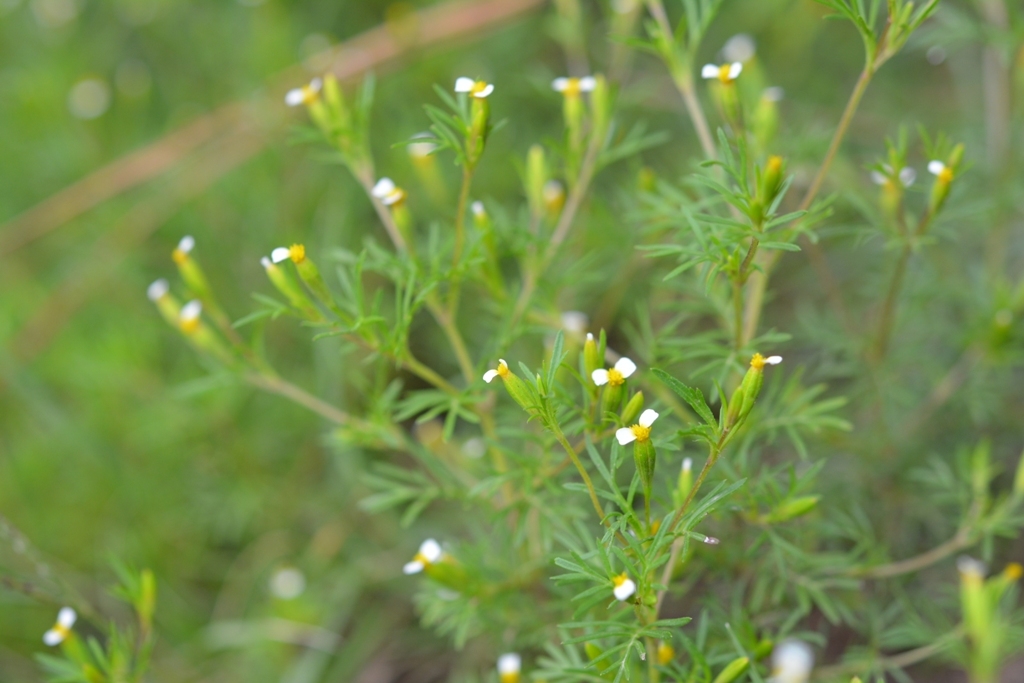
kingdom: Plantae
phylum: Tracheophyta
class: Magnoliopsida
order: Asterales
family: Asteraceae
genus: Tagetes
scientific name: Tagetes filifolia
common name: Lesser marigold
